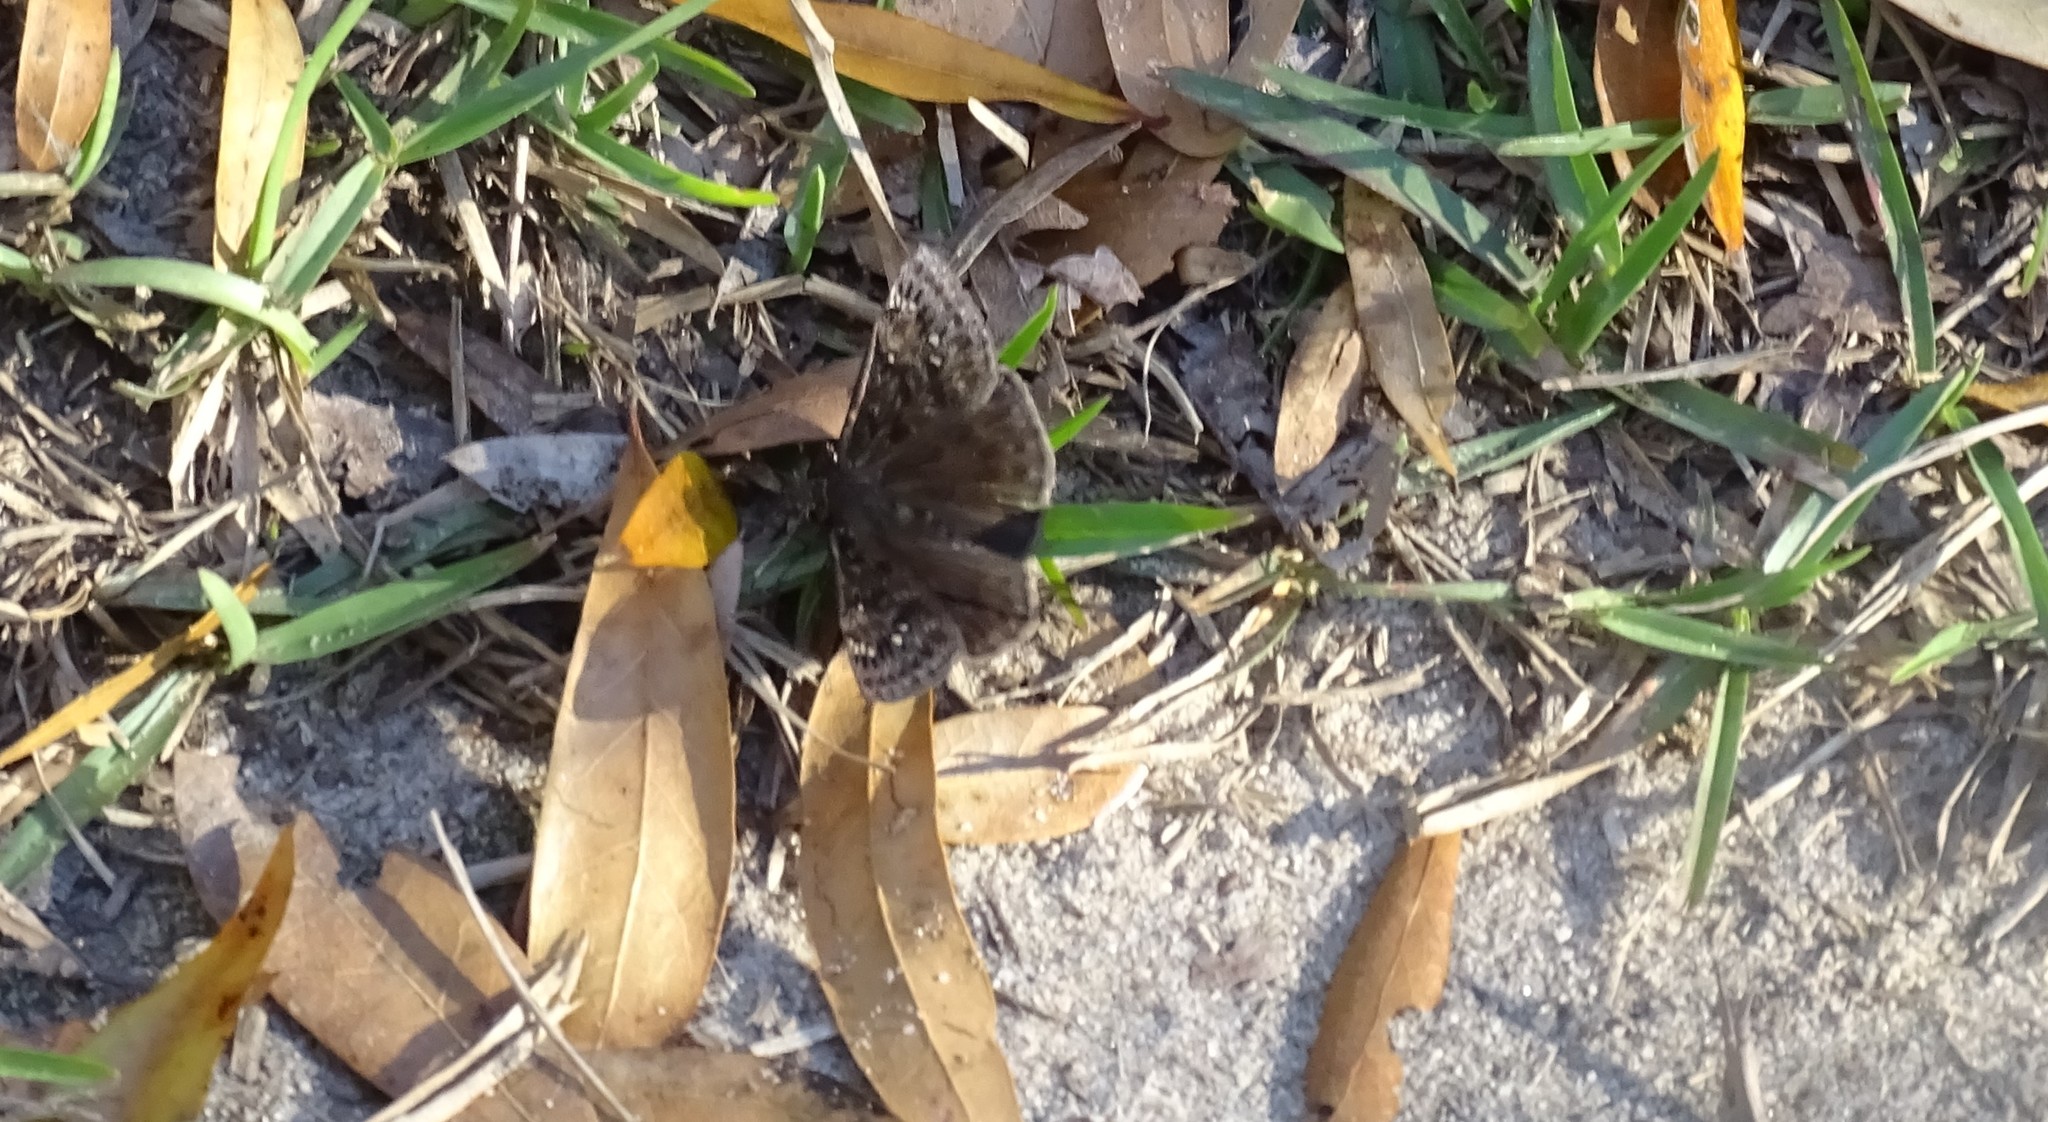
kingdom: Animalia
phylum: Arthropoda
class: Insecta
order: Lepidoptera
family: Hesperiidae
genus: Erynnis
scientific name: Erynnis juvenalis
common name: Juvenal's duskywing
